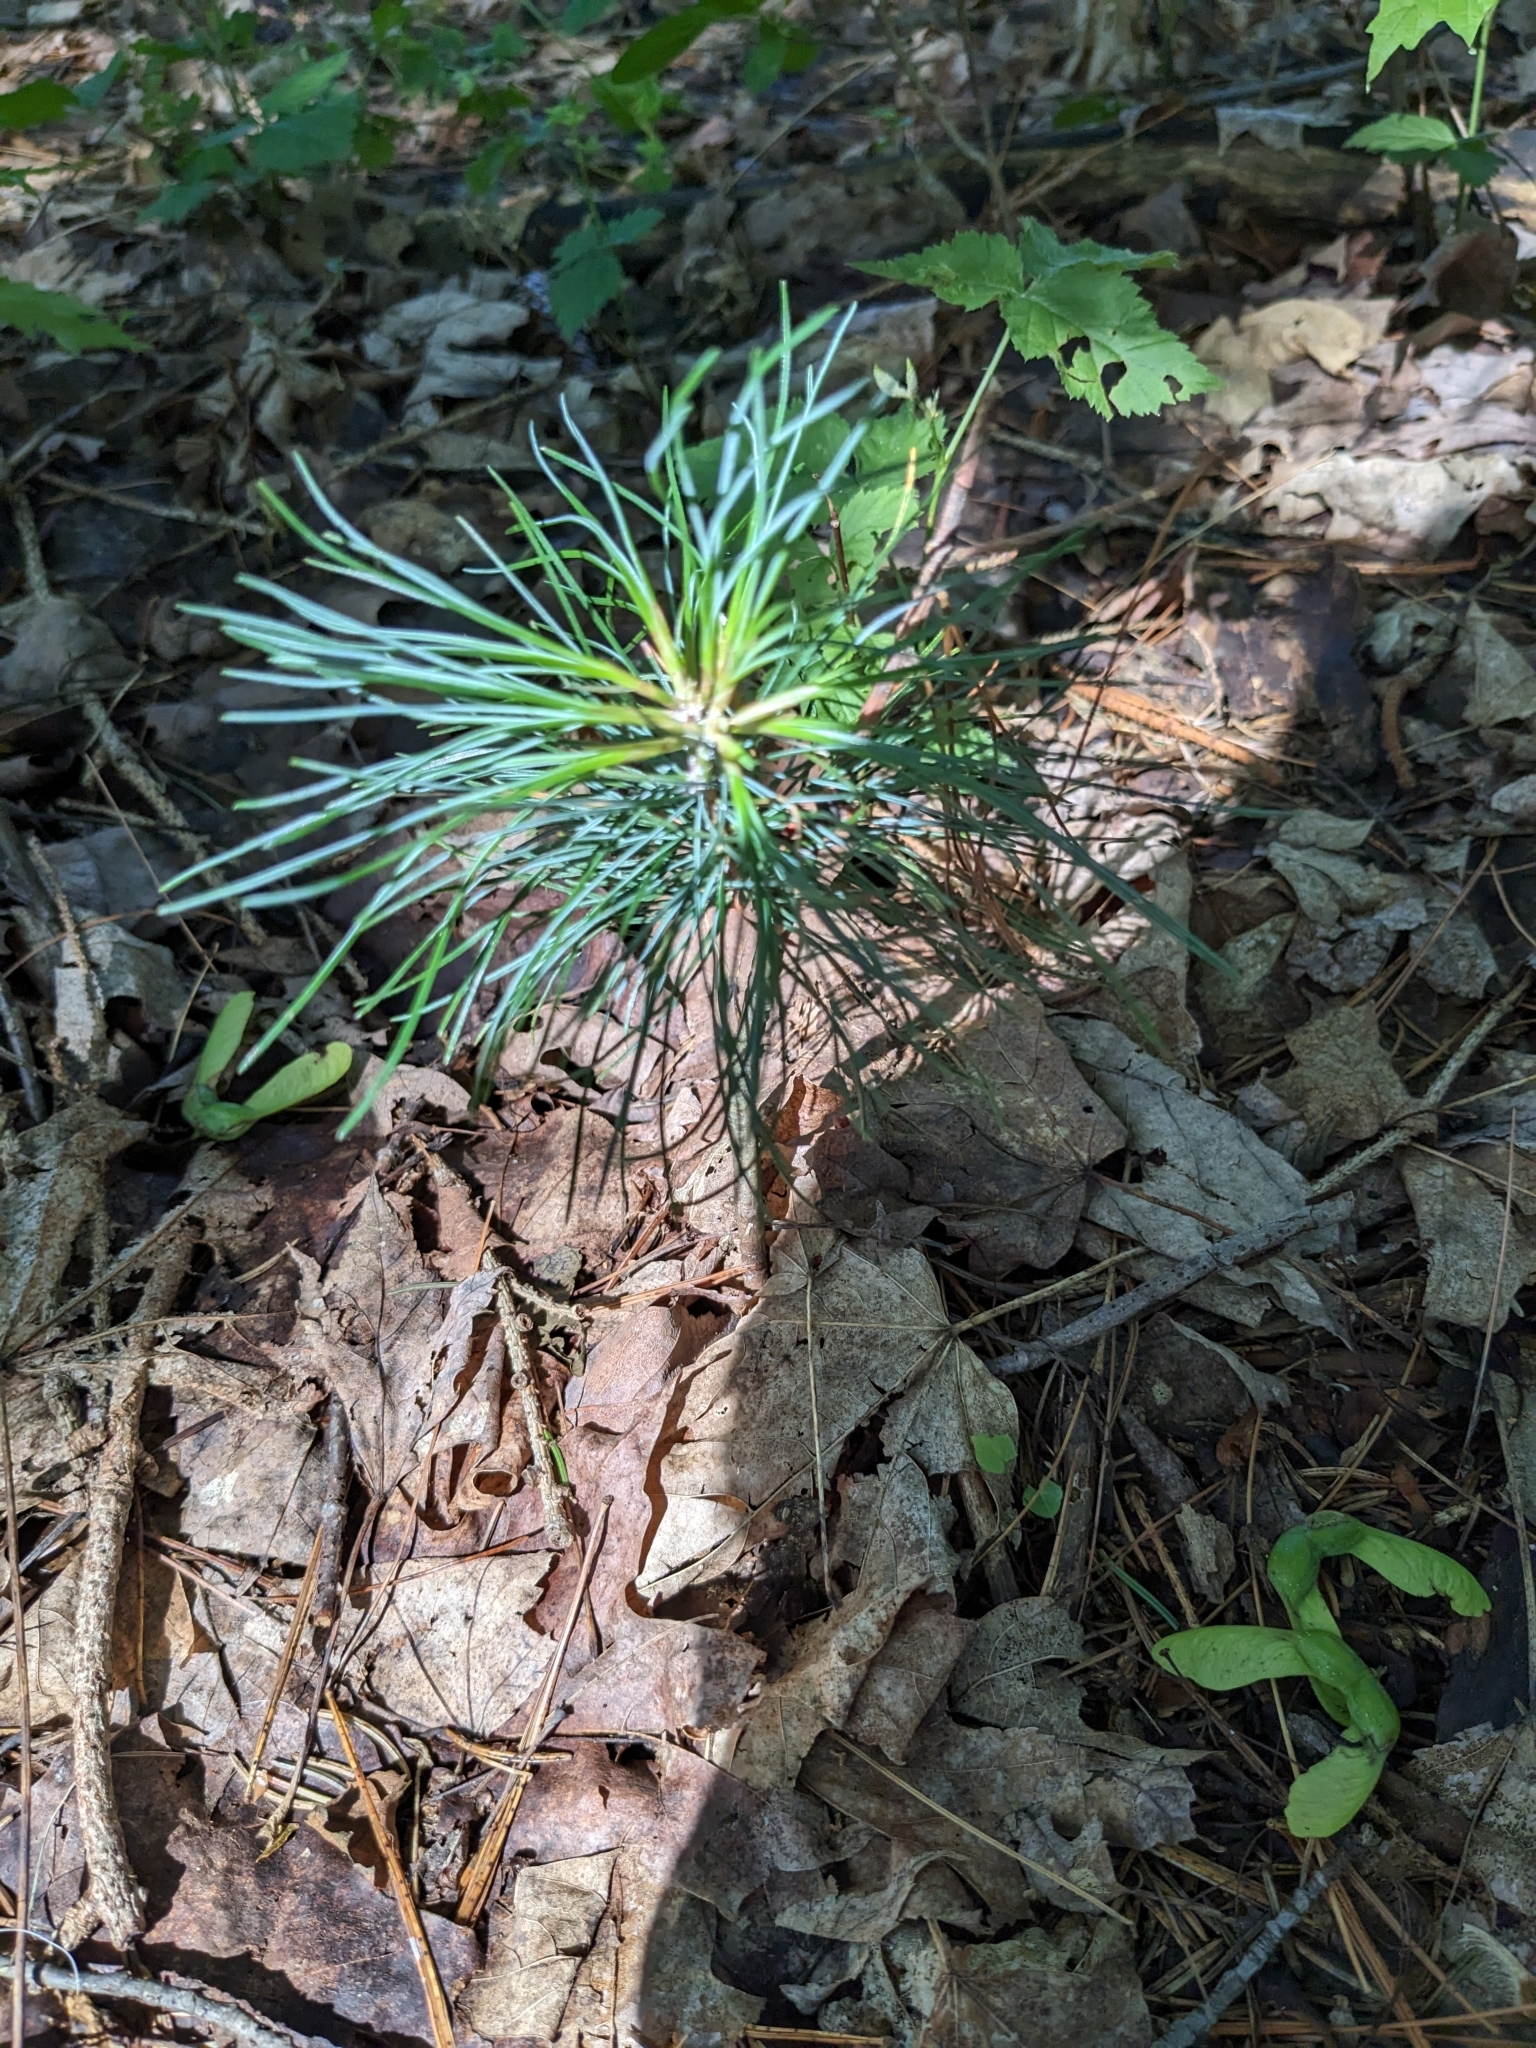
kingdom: Plantae
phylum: Tracheophyta
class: Pinopsida
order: Pinales
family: Pinaceae
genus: Pinus
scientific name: Pinus strobus
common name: Weymouth pine
